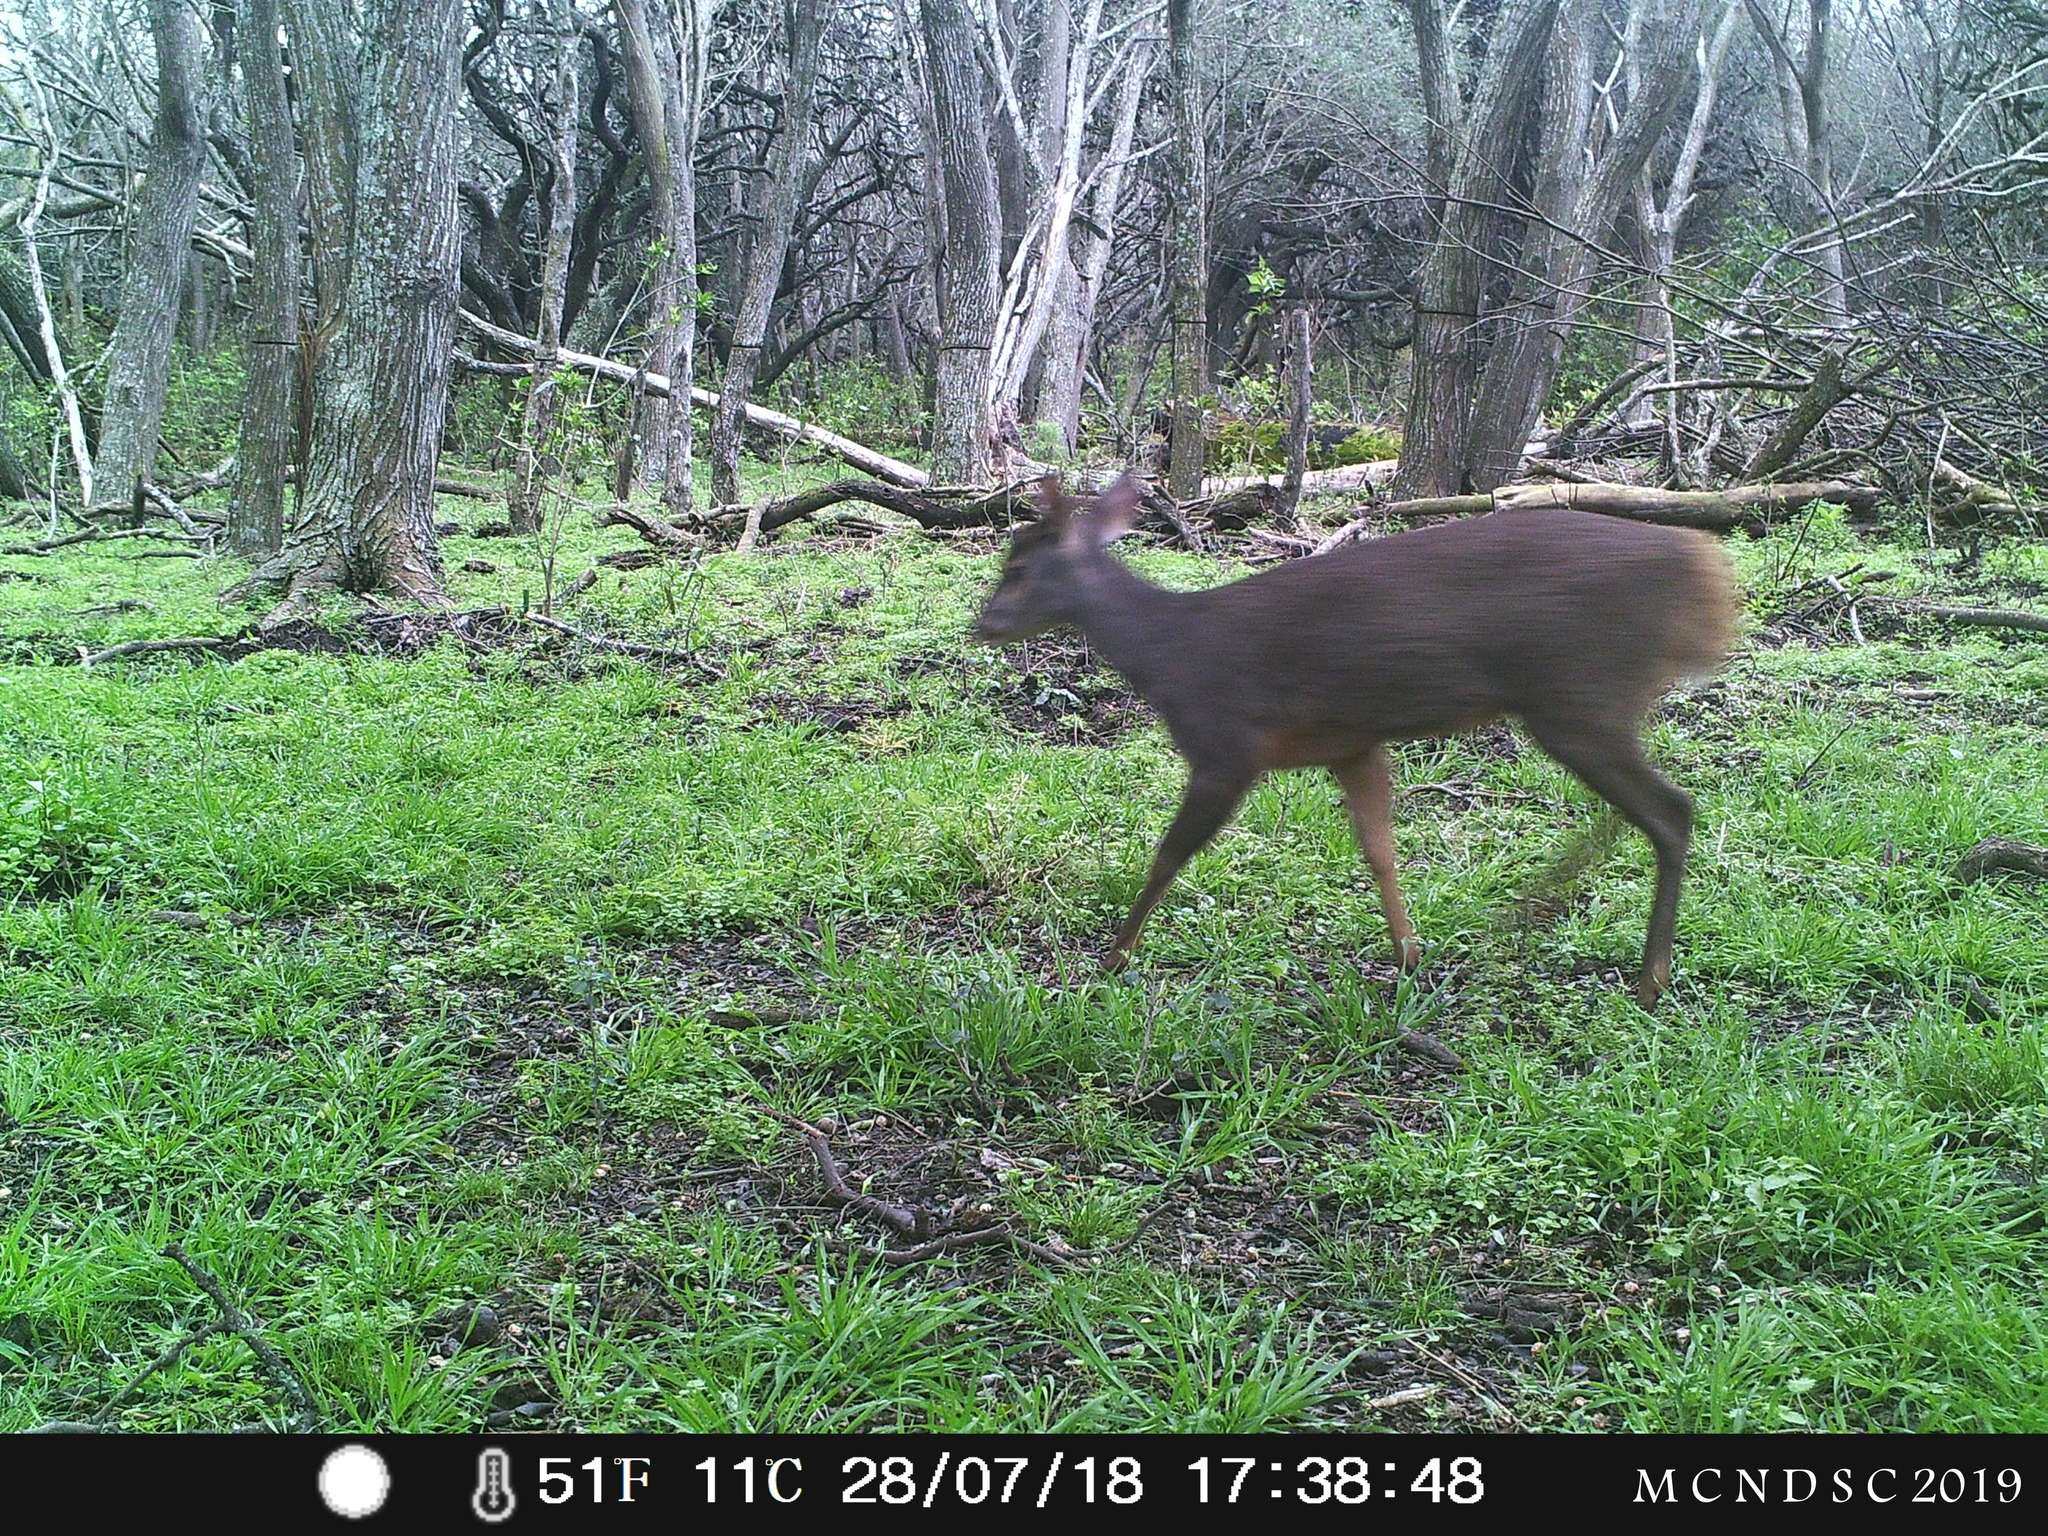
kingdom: Animalia
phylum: Chordata
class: Mammalia
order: Artiodactyla
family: Cervidae
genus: Mazama
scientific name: Mazama gouazoubira
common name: Gray brocket
